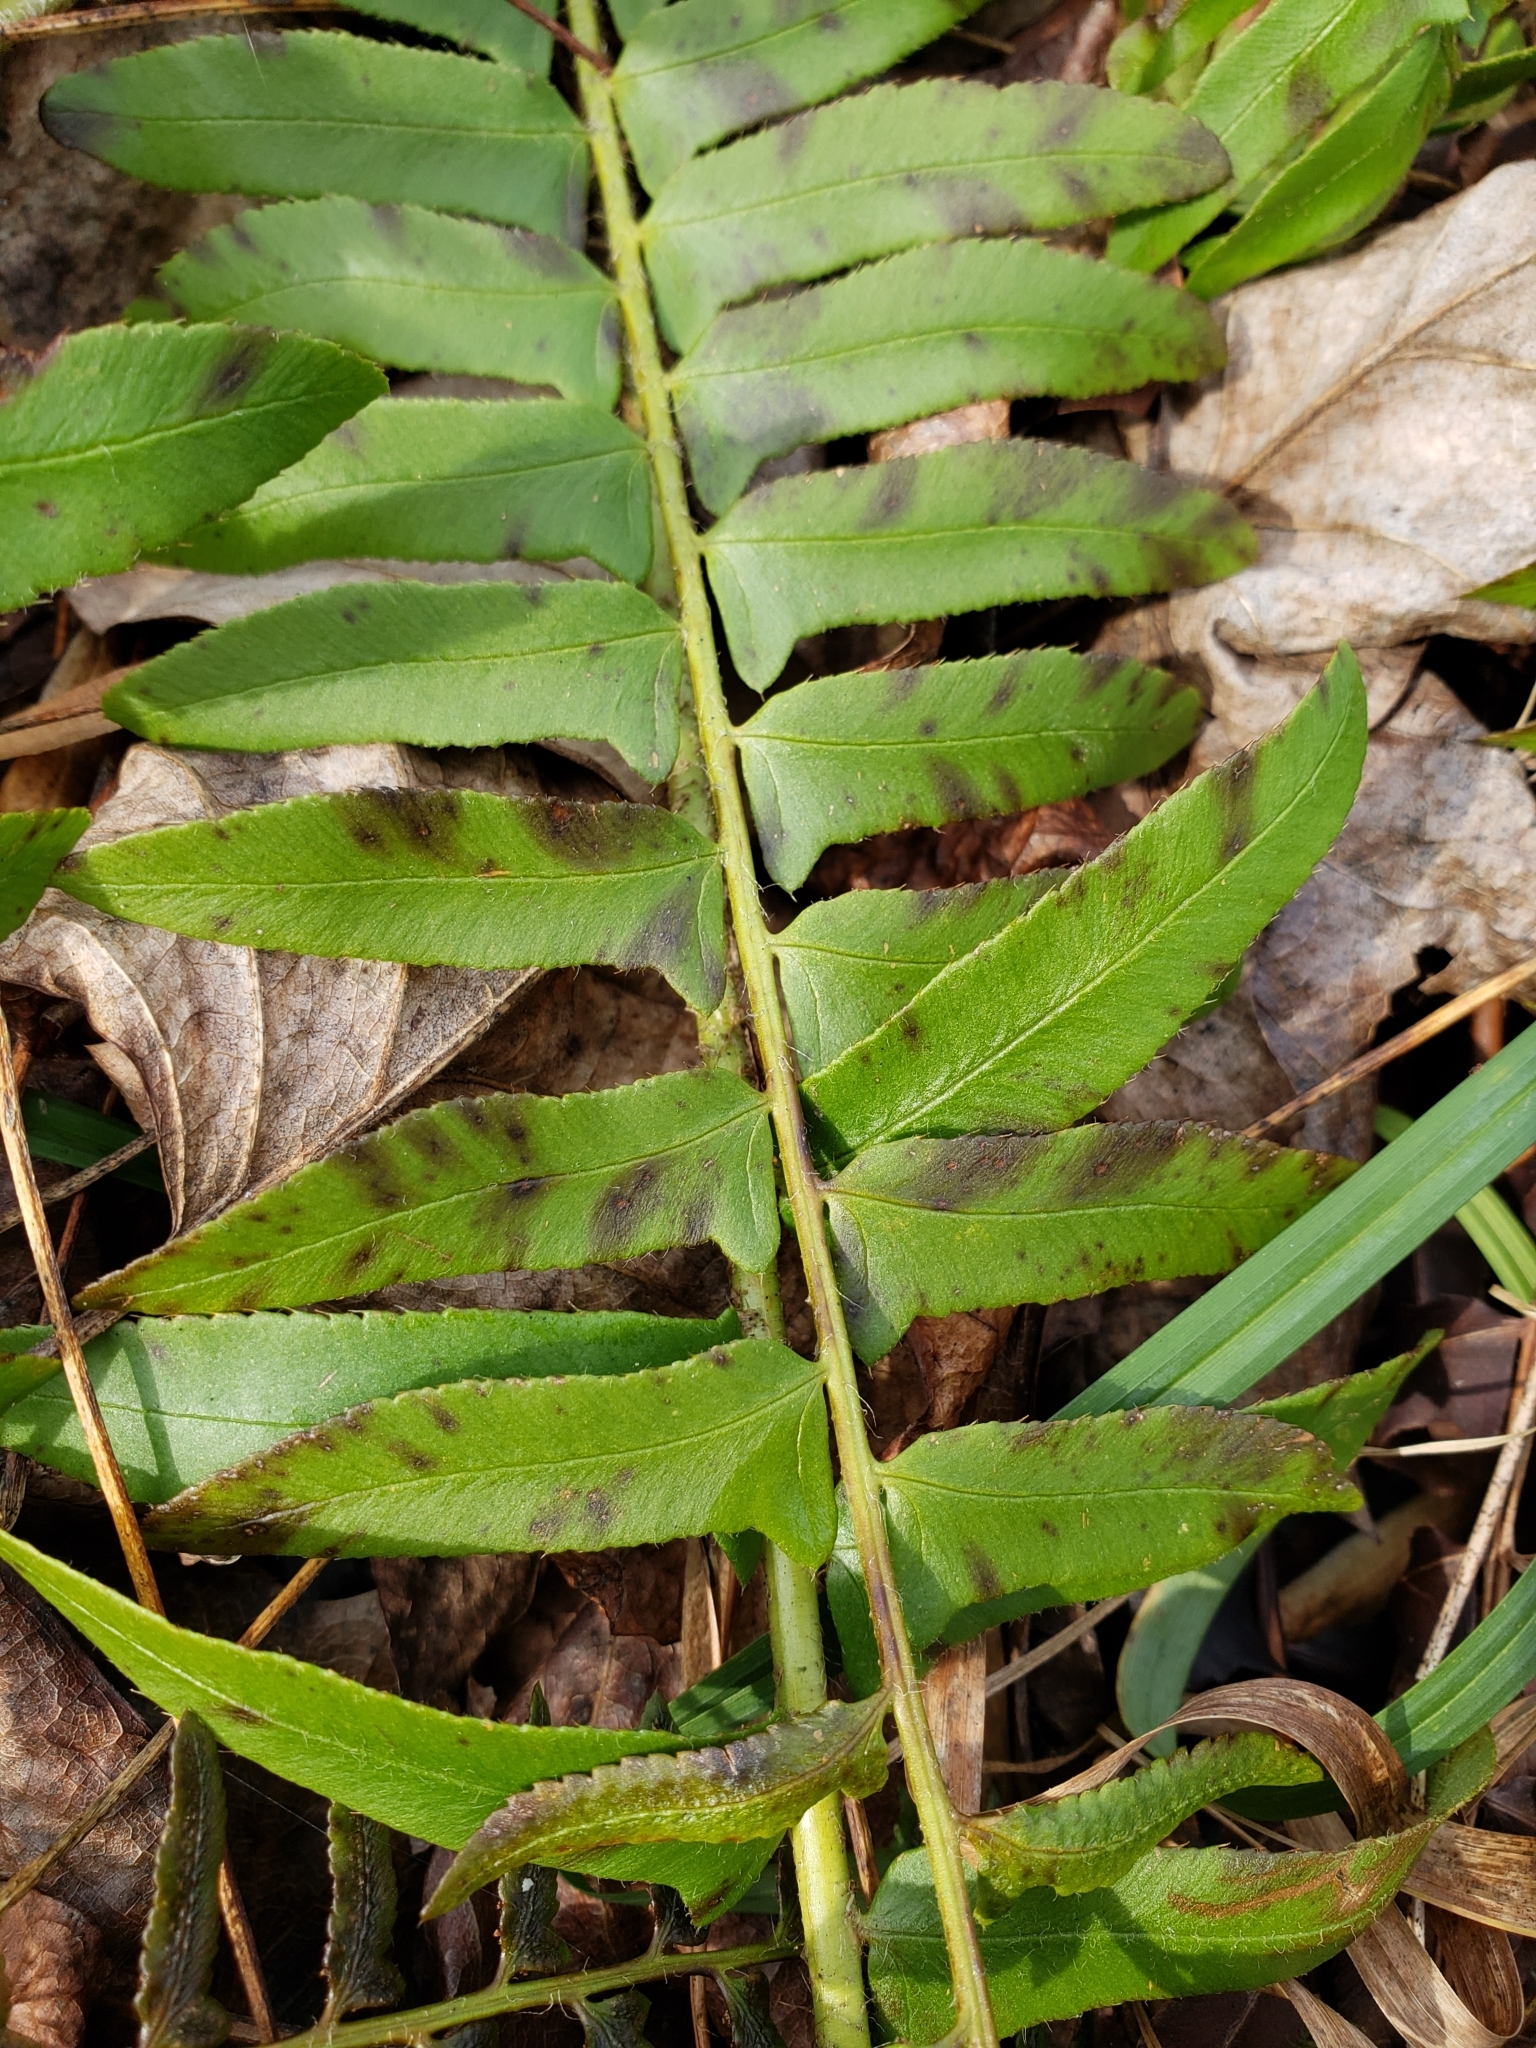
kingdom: Plantae
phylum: Tracheophyta
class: Polypodiopsida
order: Polypodiales
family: Dryopteridaceae
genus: Polystichum
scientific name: Polystichum acrostichoides
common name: Christmas fern
